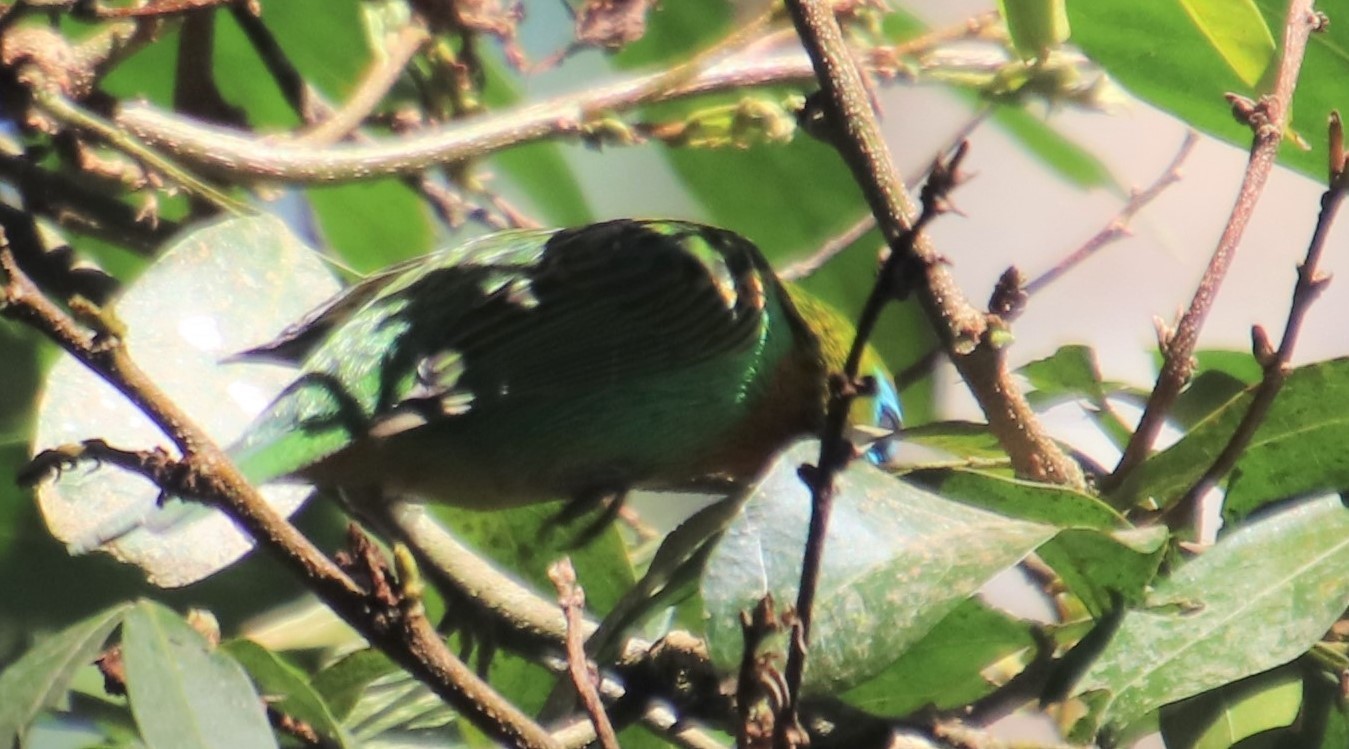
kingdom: Animalia
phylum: Chordata
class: Aves
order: Passeriformes
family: Thraupidae
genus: Tangara
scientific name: Tangara desmaresti
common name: Brassy-breasted tanager
